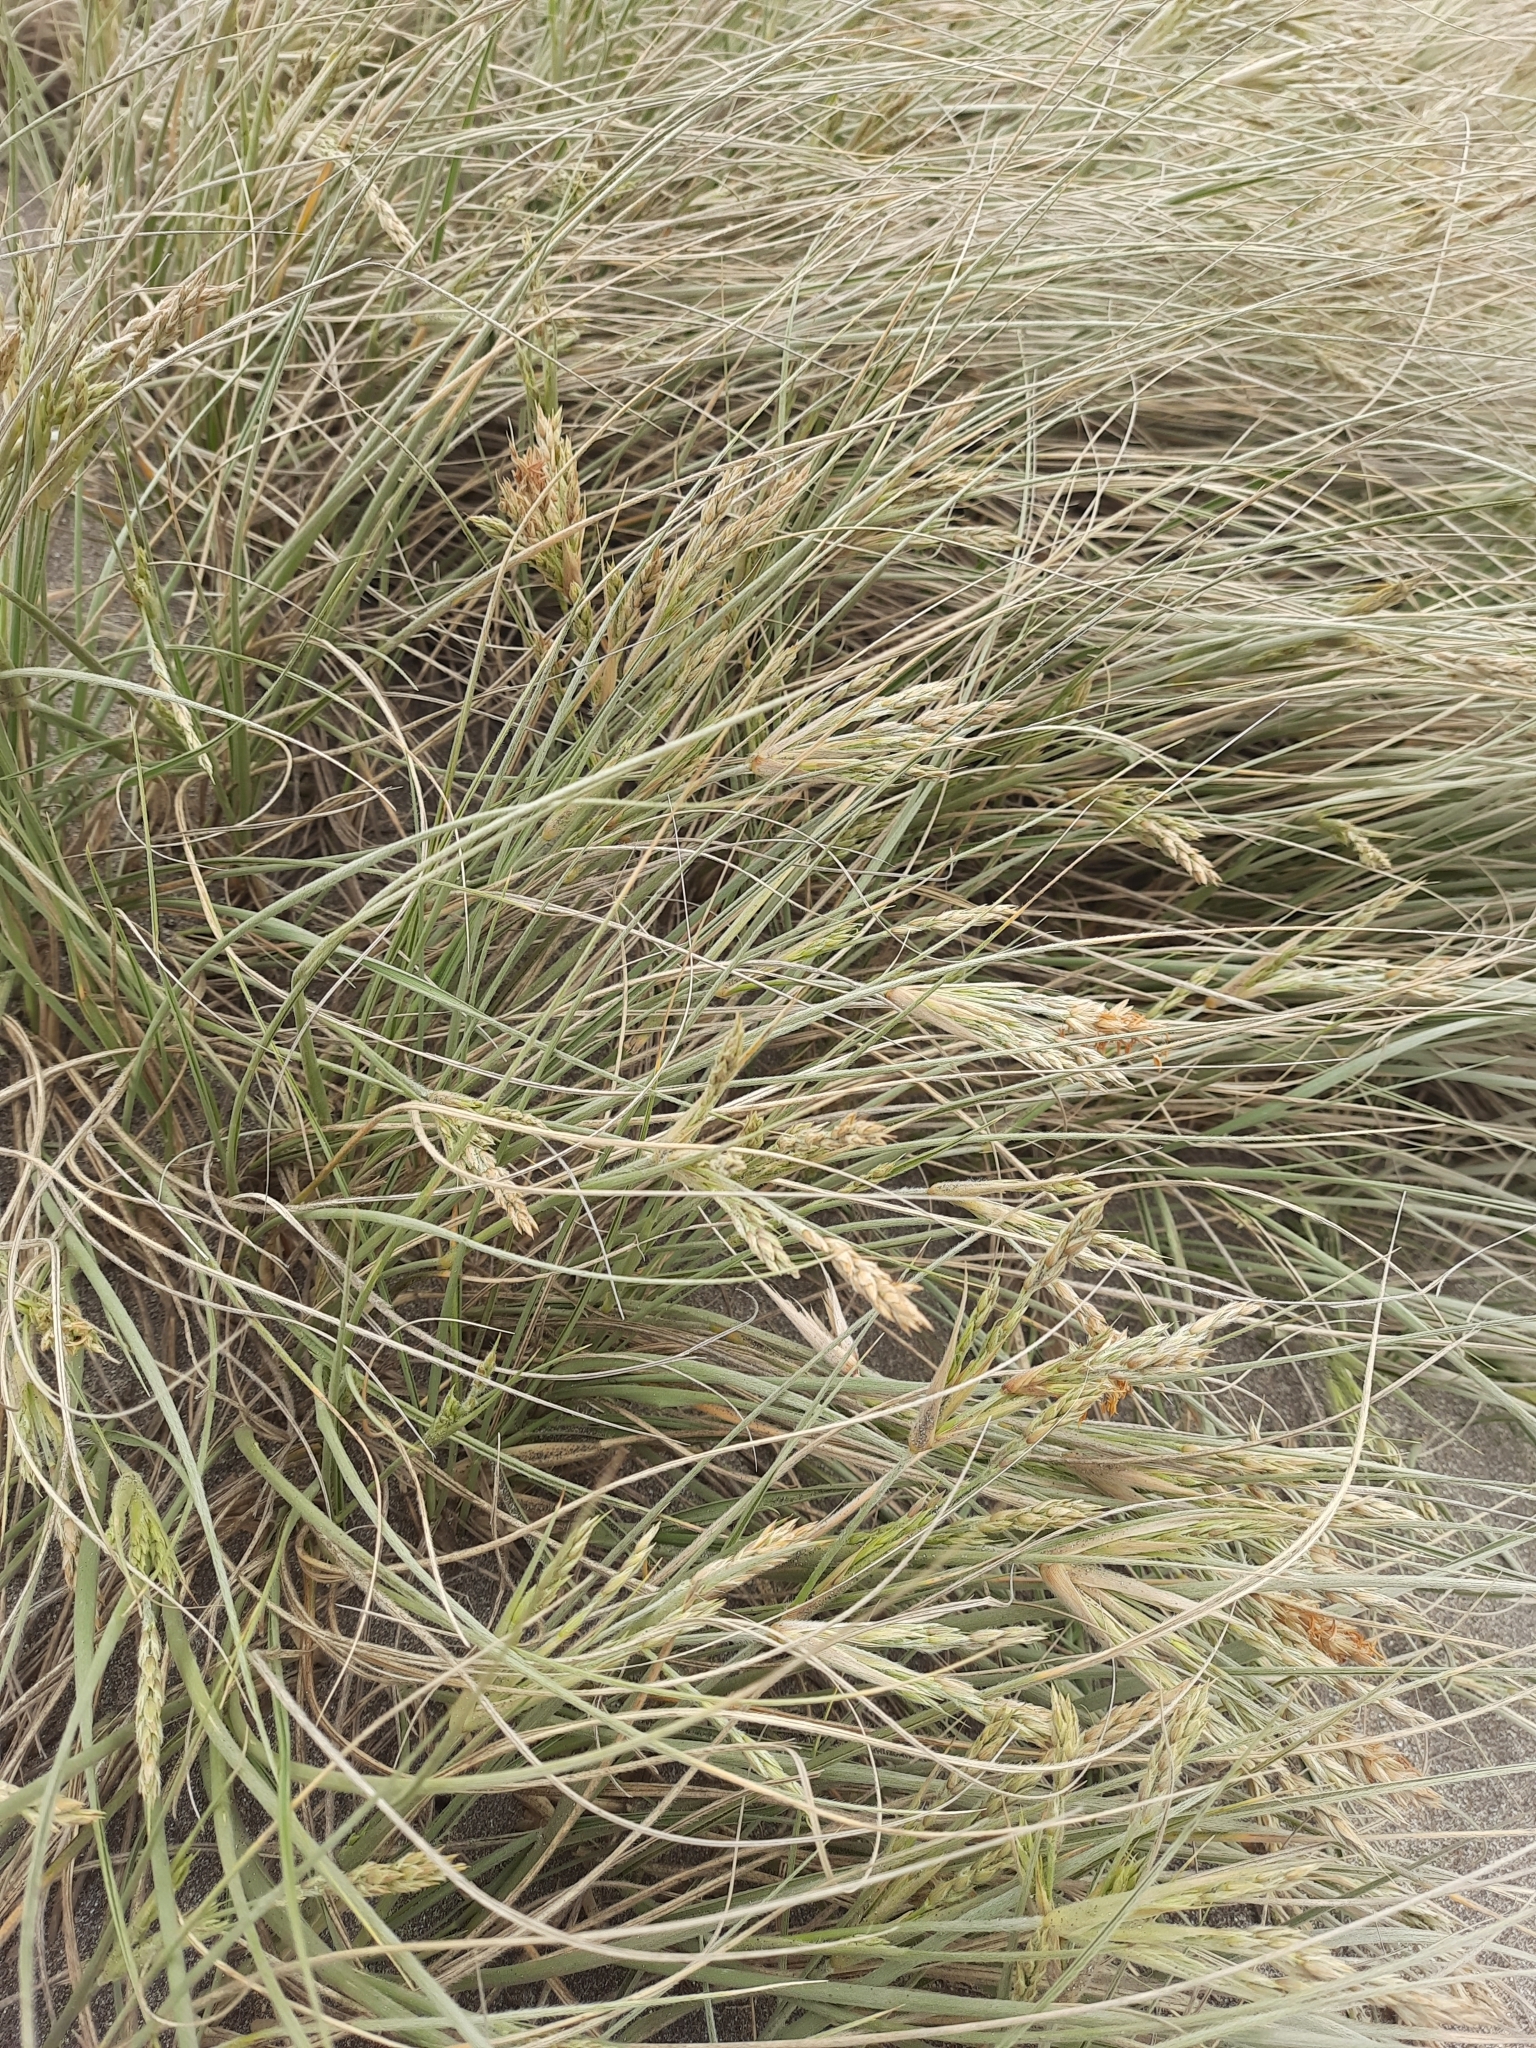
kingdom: Plantae
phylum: Tracheophyta
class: Liliopsida
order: Poales
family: Poaceae
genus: Spinifex
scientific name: Spinifex sericeus
